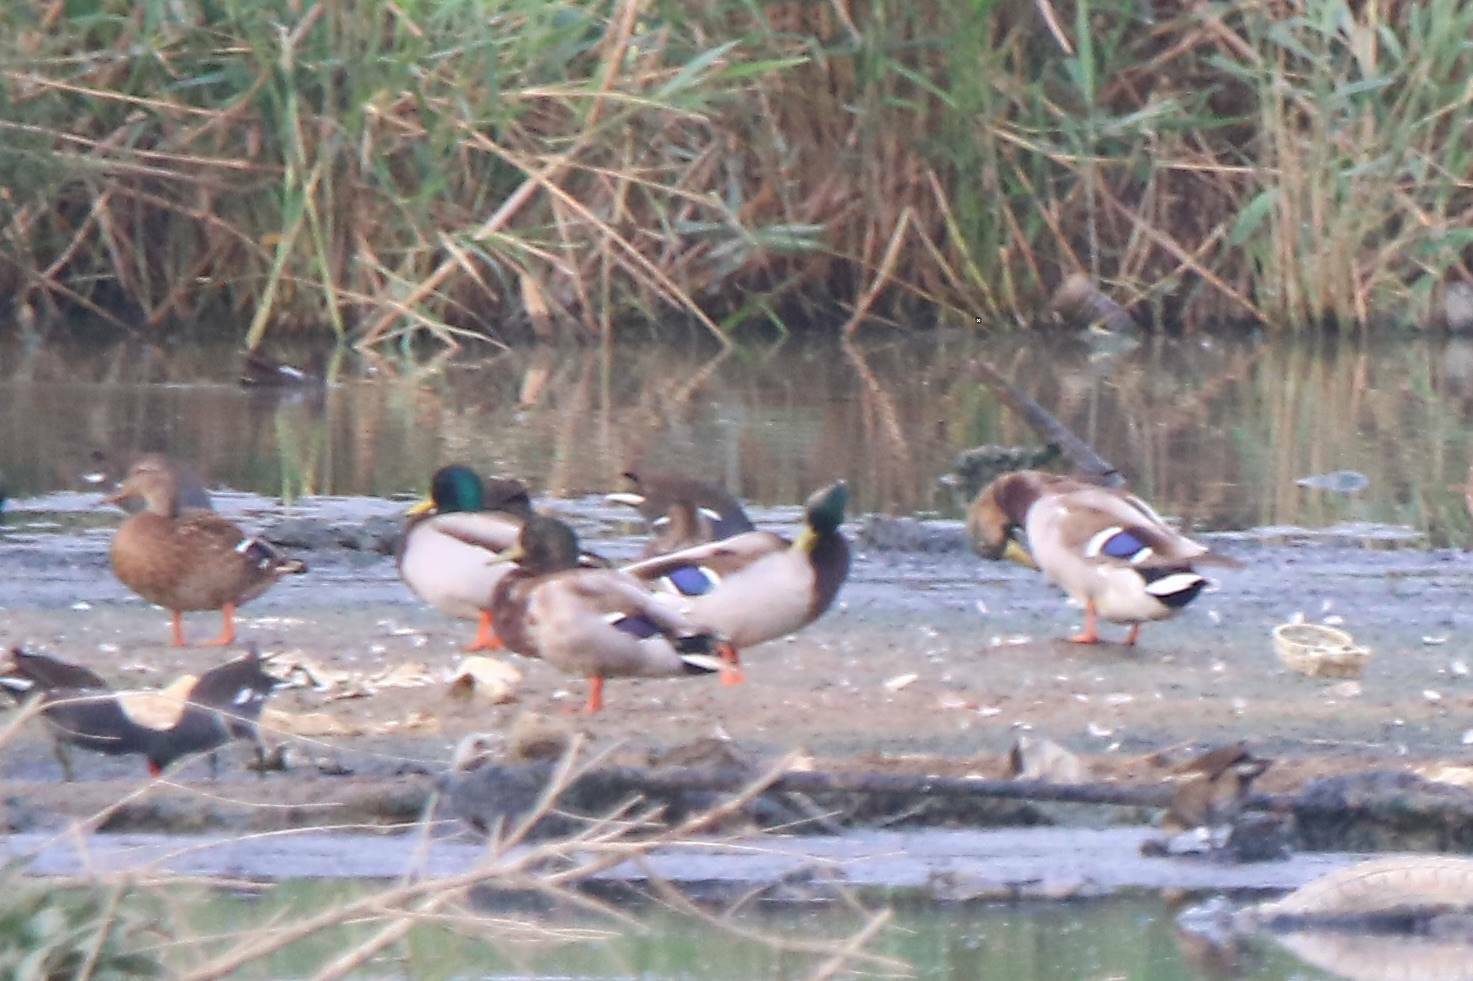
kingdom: Animalia
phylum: Chordata
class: Aves
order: Anseriformes
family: Anatidae
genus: Anas
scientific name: Anas platyrhynchos
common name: Mallard
